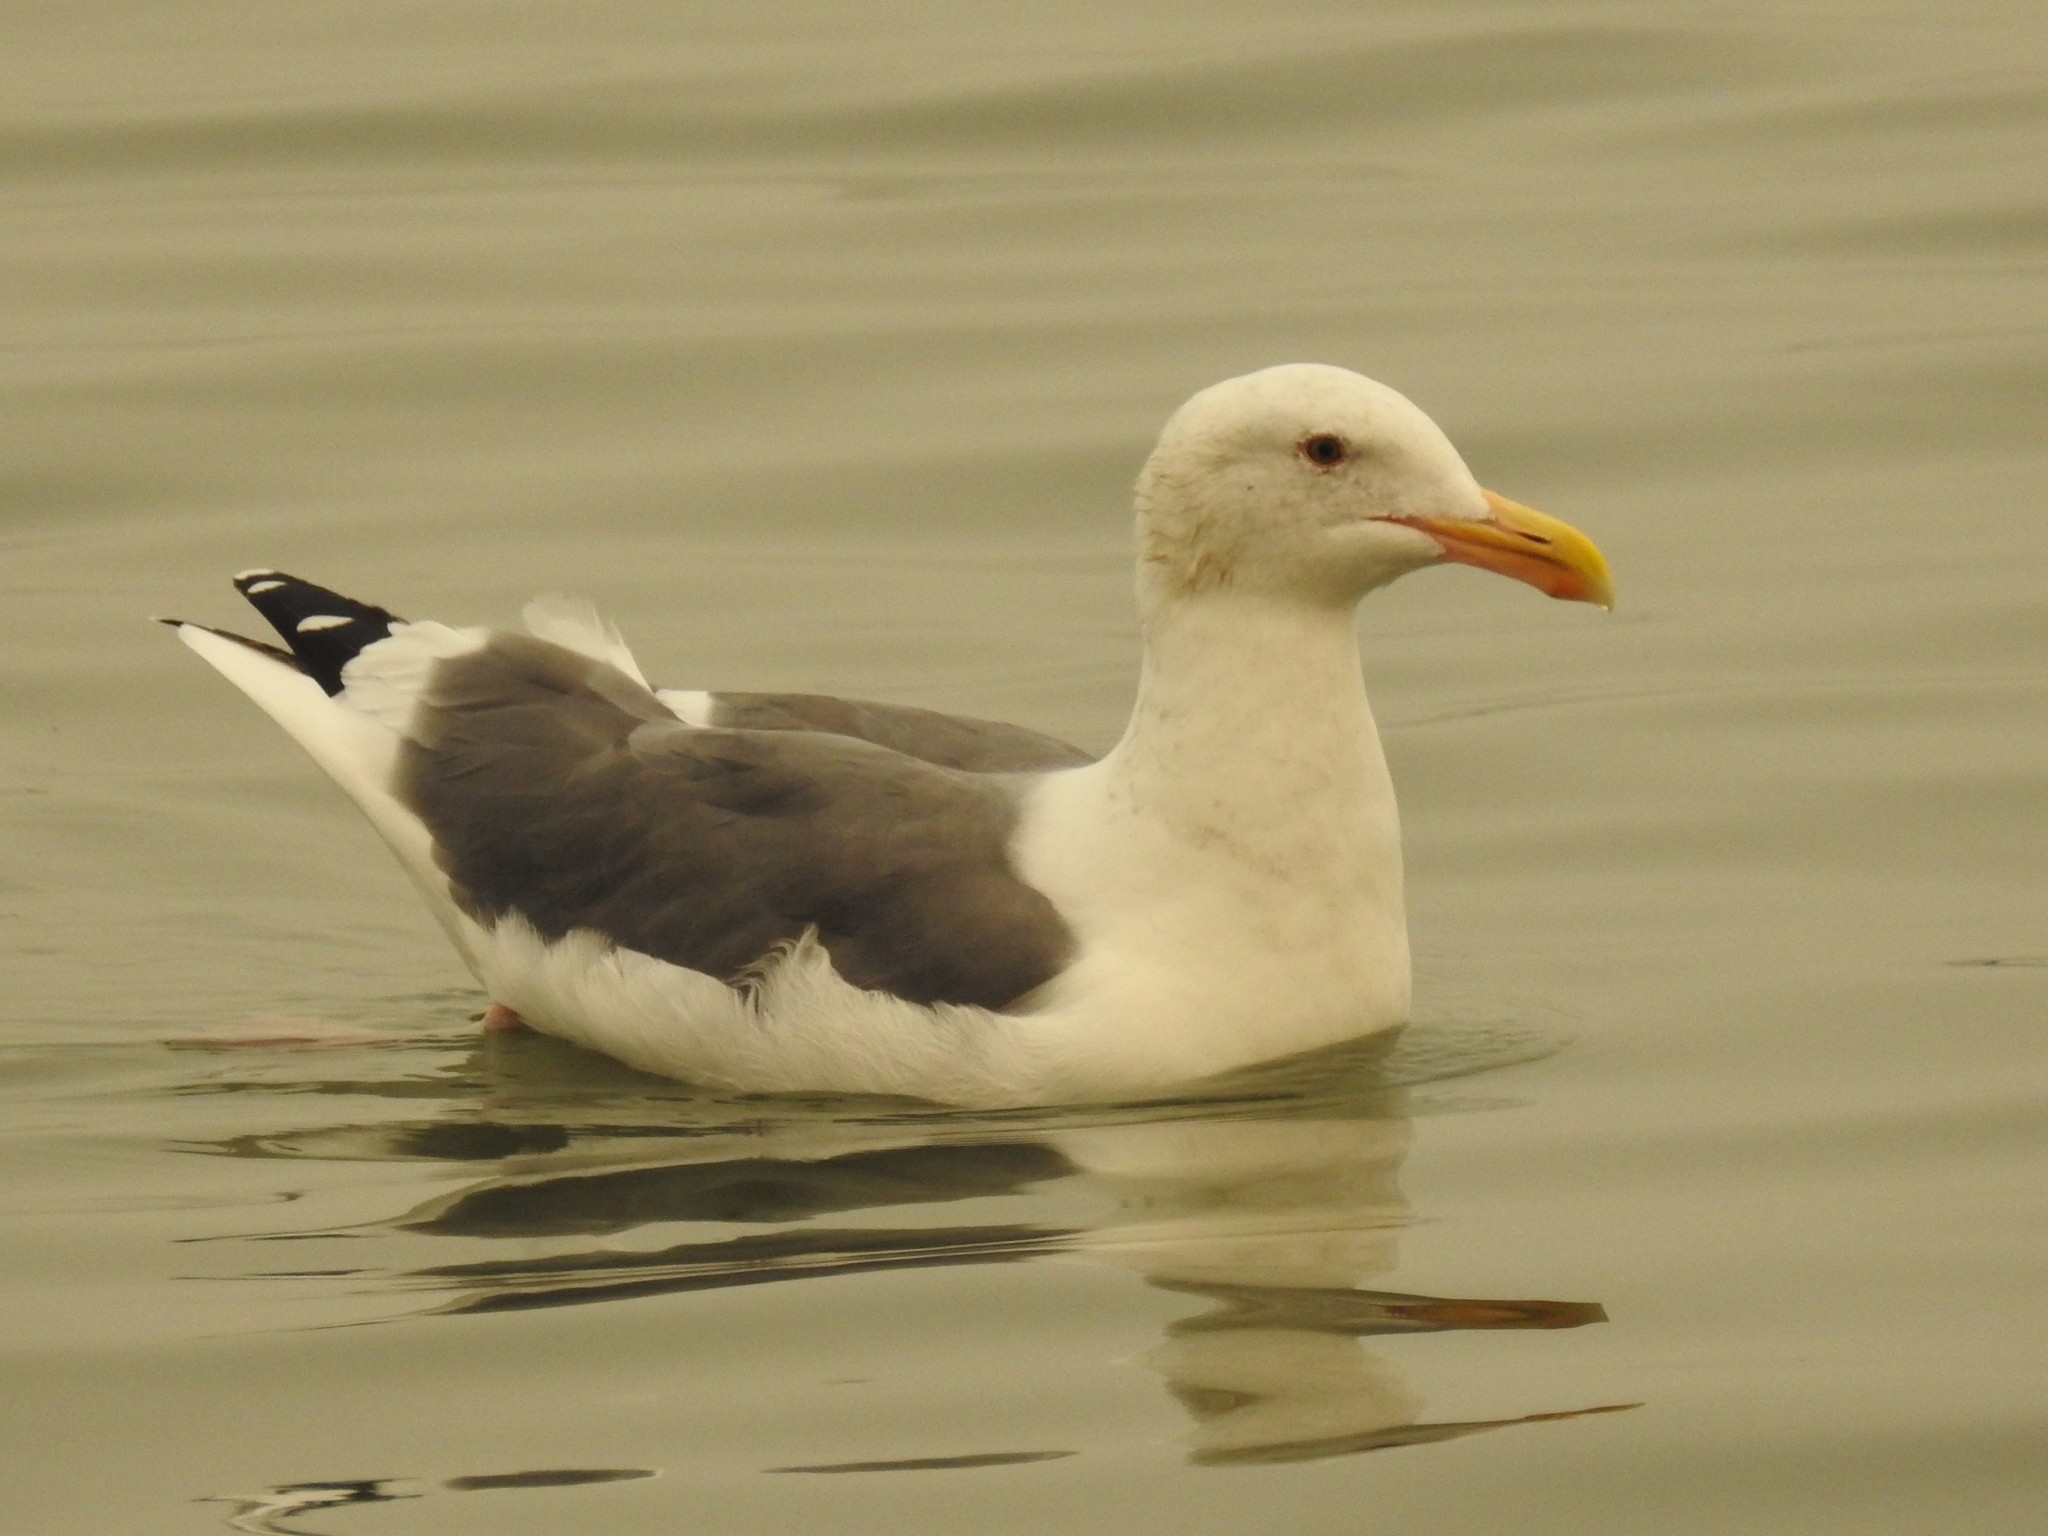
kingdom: Animalia
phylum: Chordata
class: Aves
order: Charadriiformes
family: Laridae
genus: Larus
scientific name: Larus occidentalis
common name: Western gull
